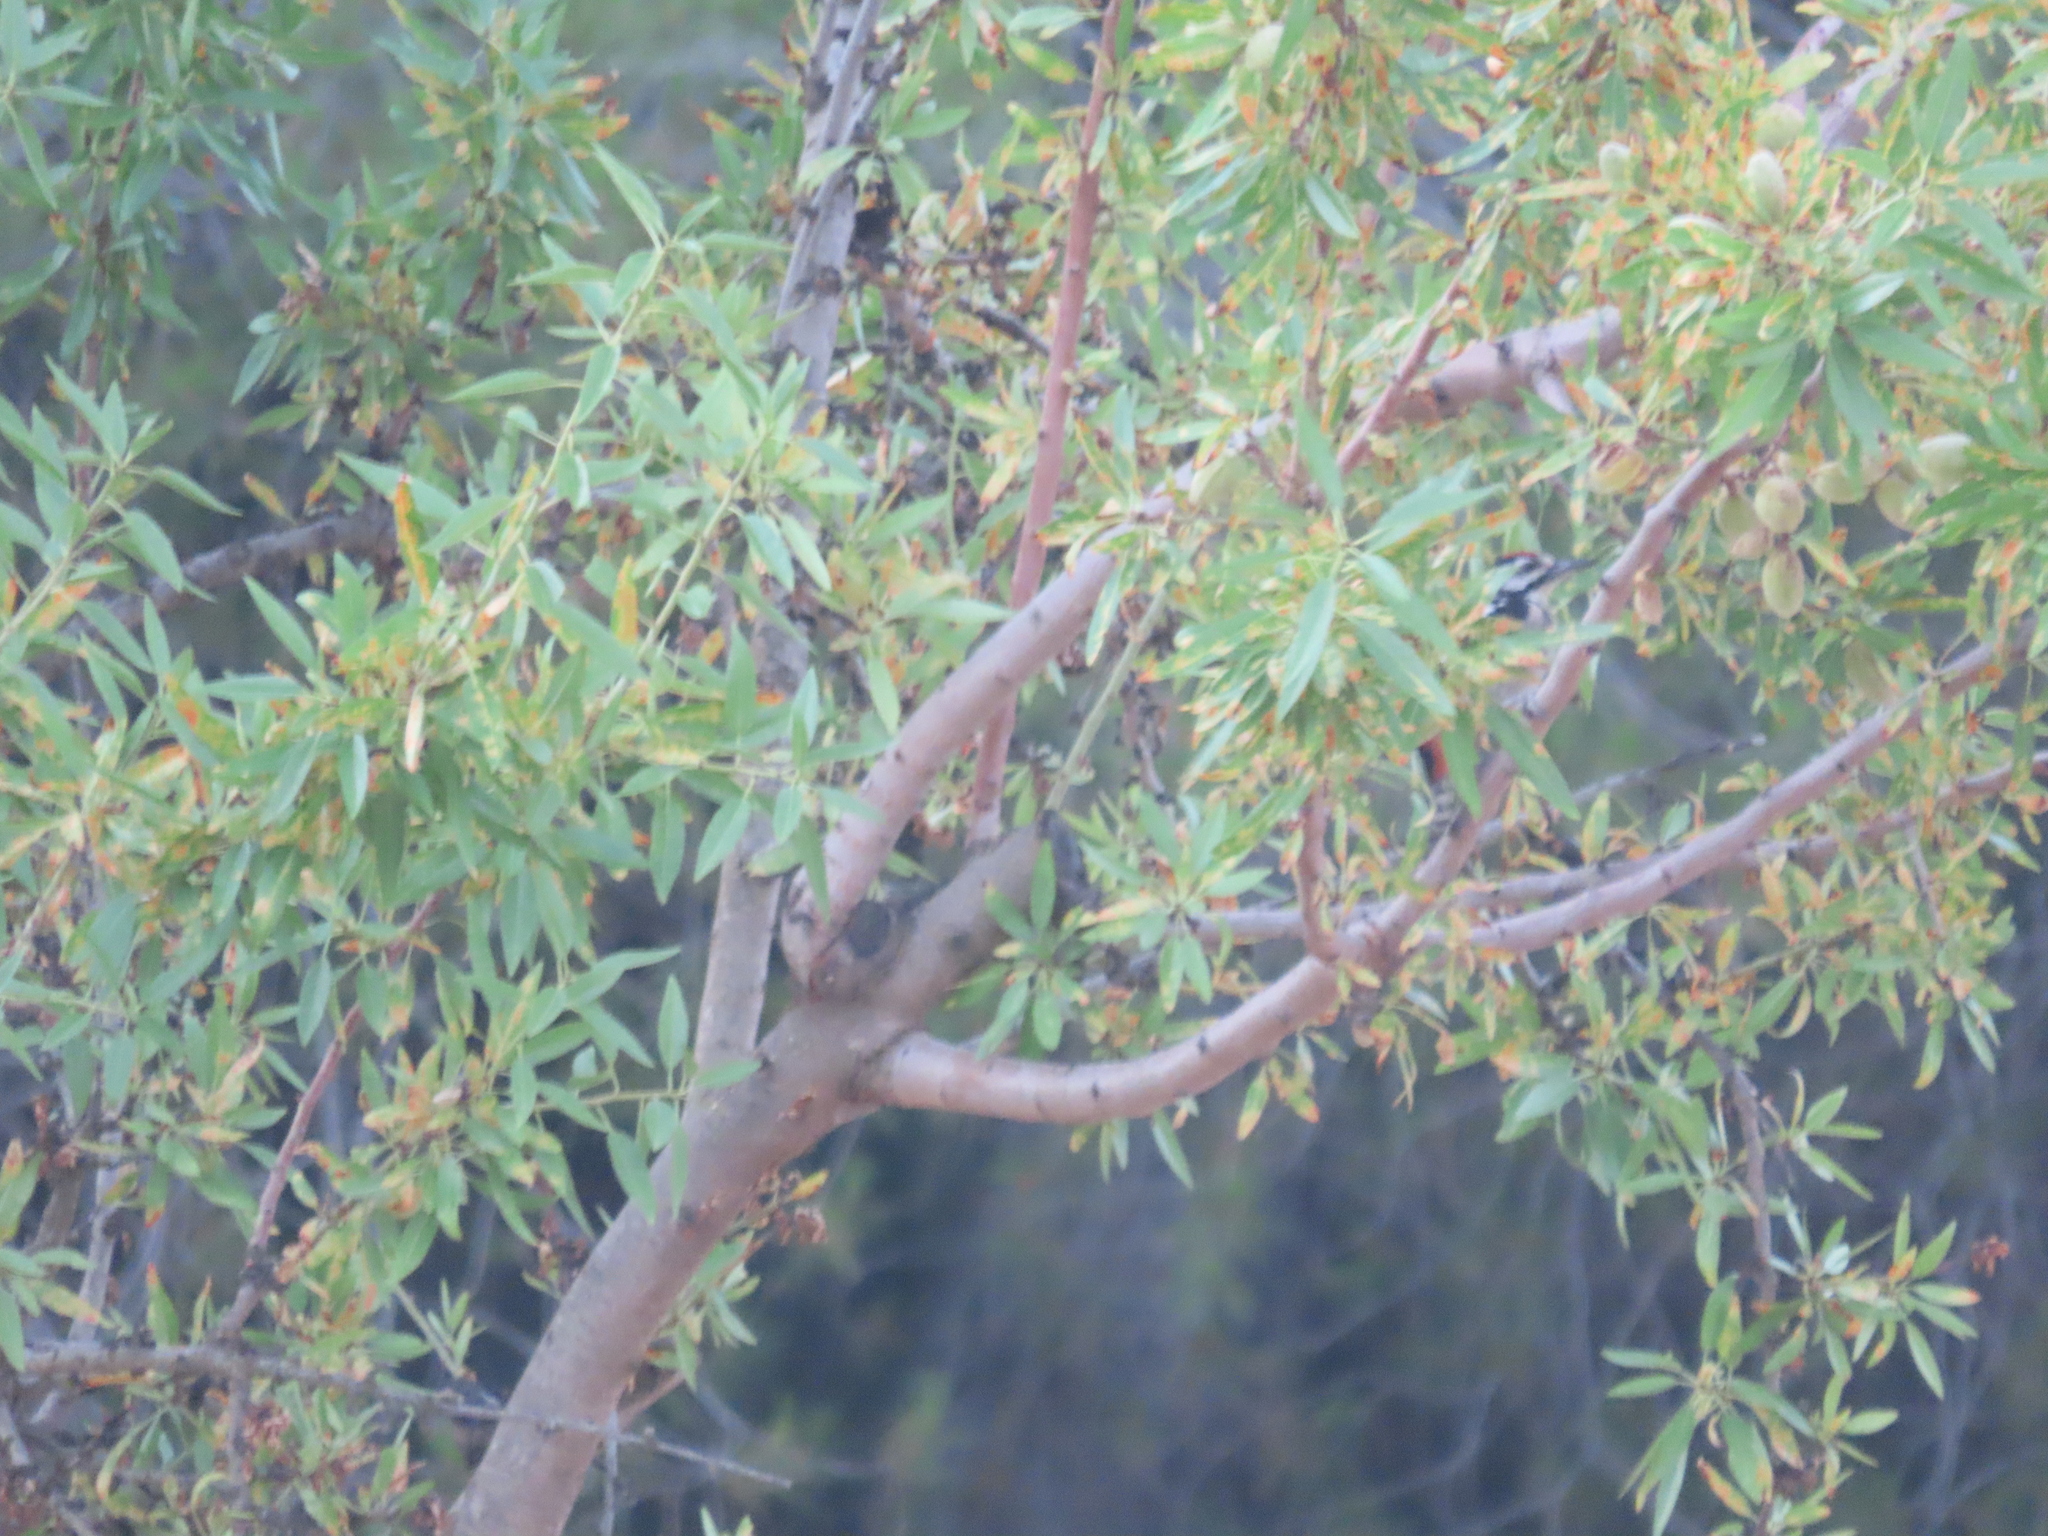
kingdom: Animalia
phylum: Chordata
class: Aves
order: Piciformes
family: Picidae
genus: Dendrocopos
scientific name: Dendrocopos major
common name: Great spotted woodpecker
